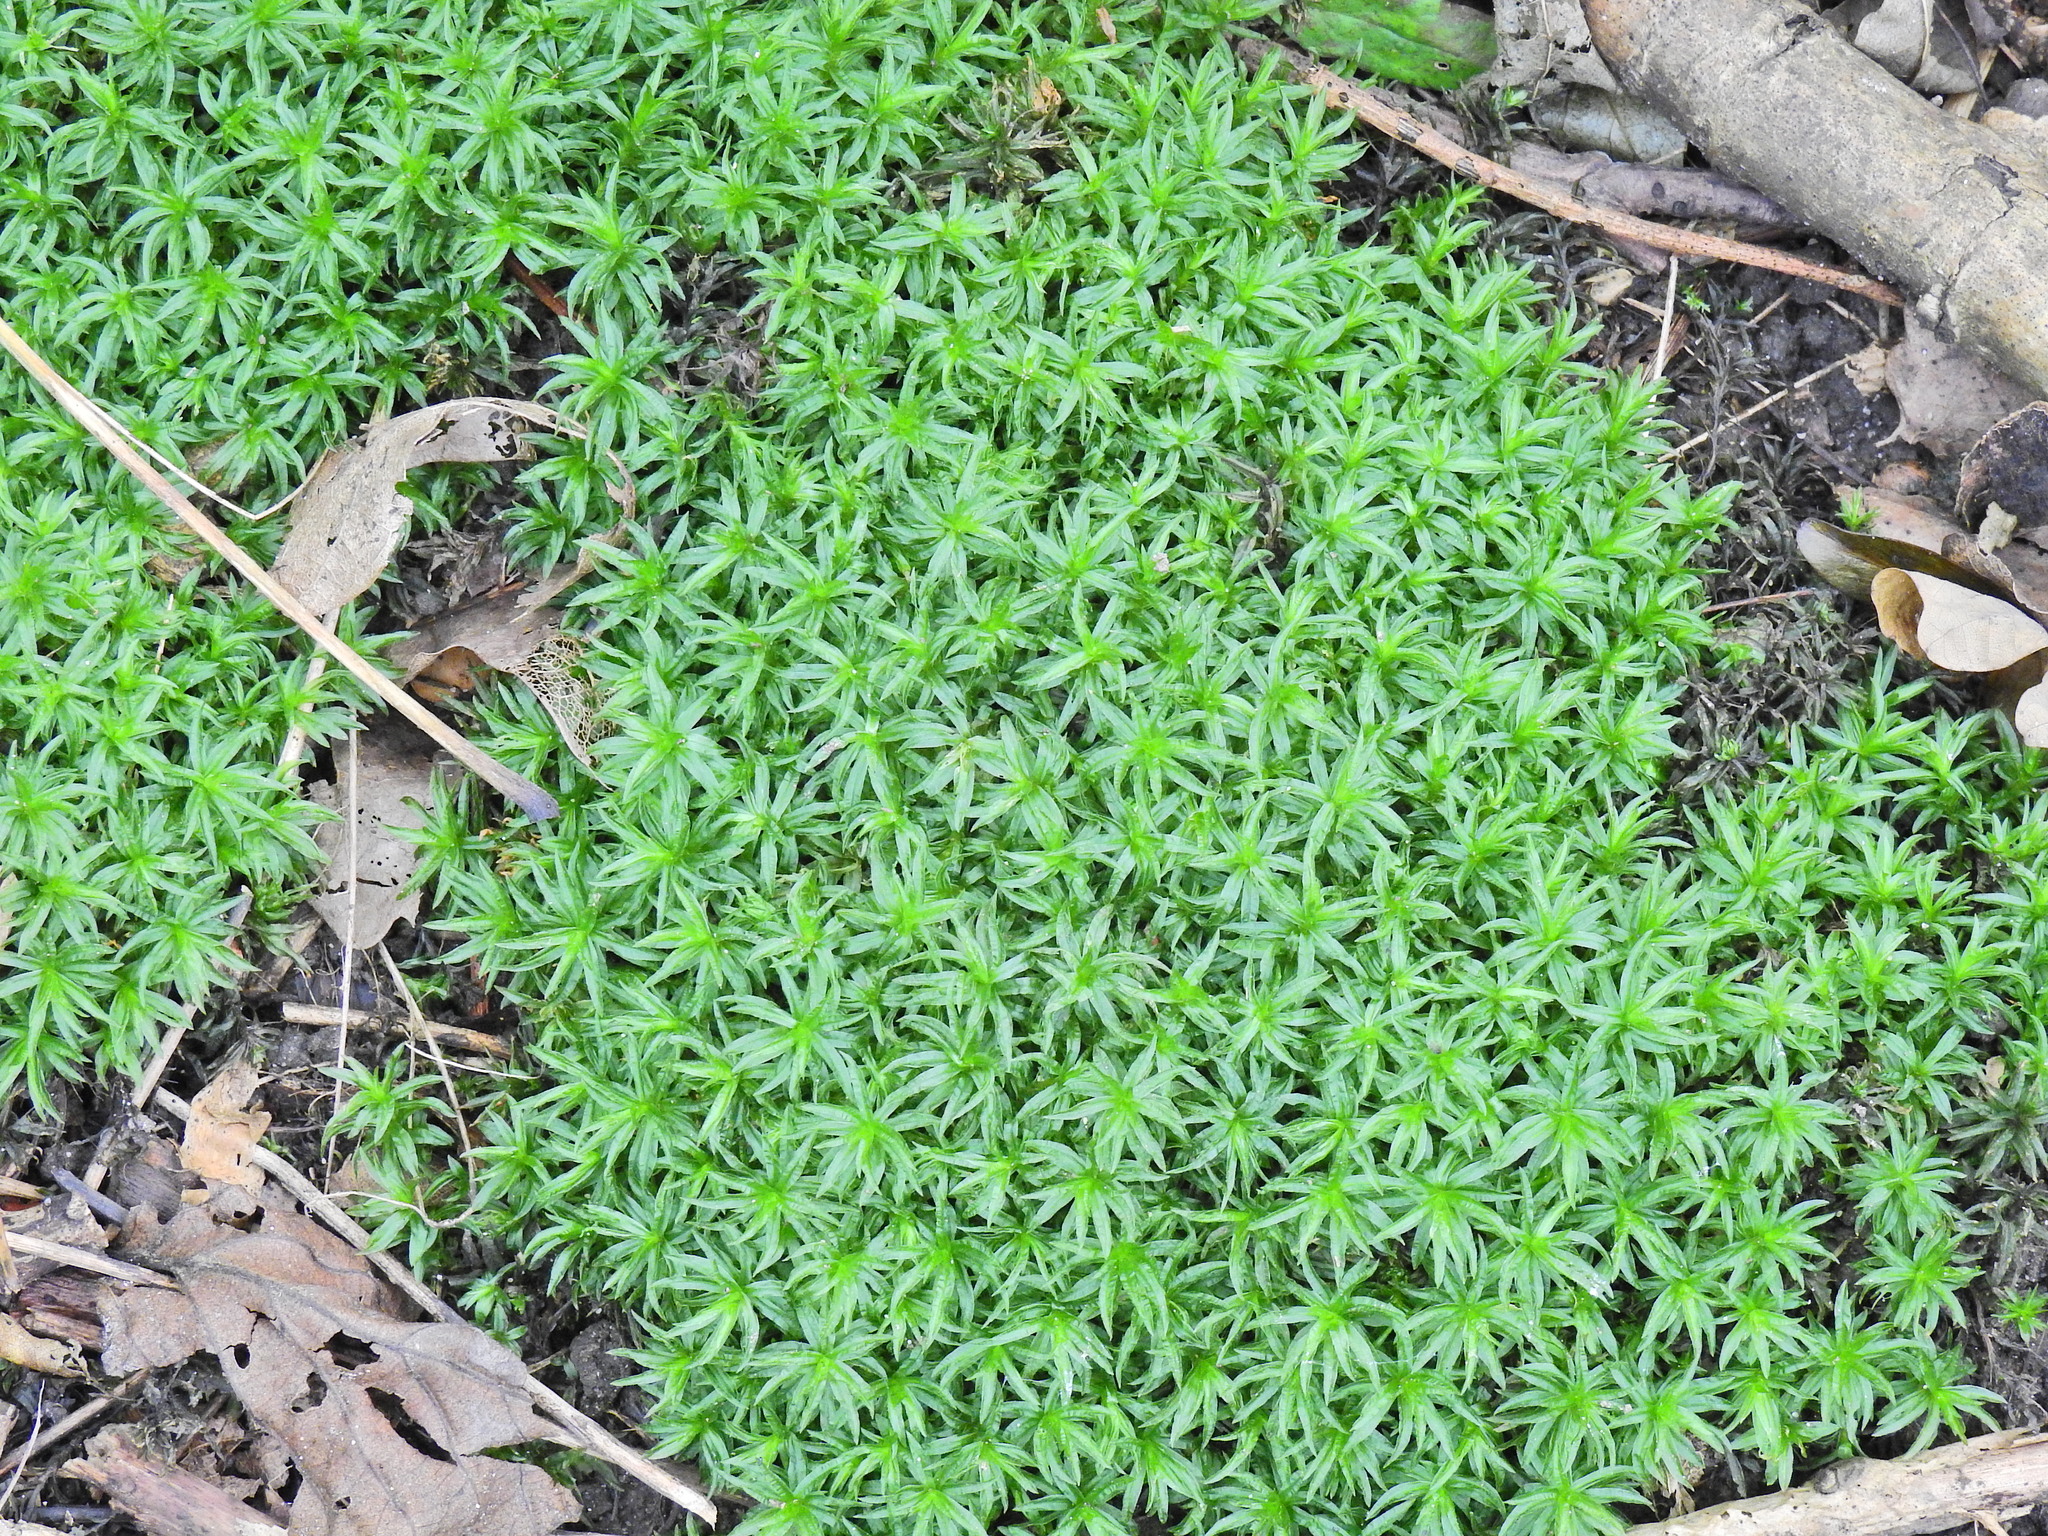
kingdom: Plantae
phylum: Bryophyta
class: Polytrichopsida
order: Polytrichales
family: Polytrichaceae
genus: Atrichum
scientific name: Atrichum undulatum
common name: Common smoothcap
